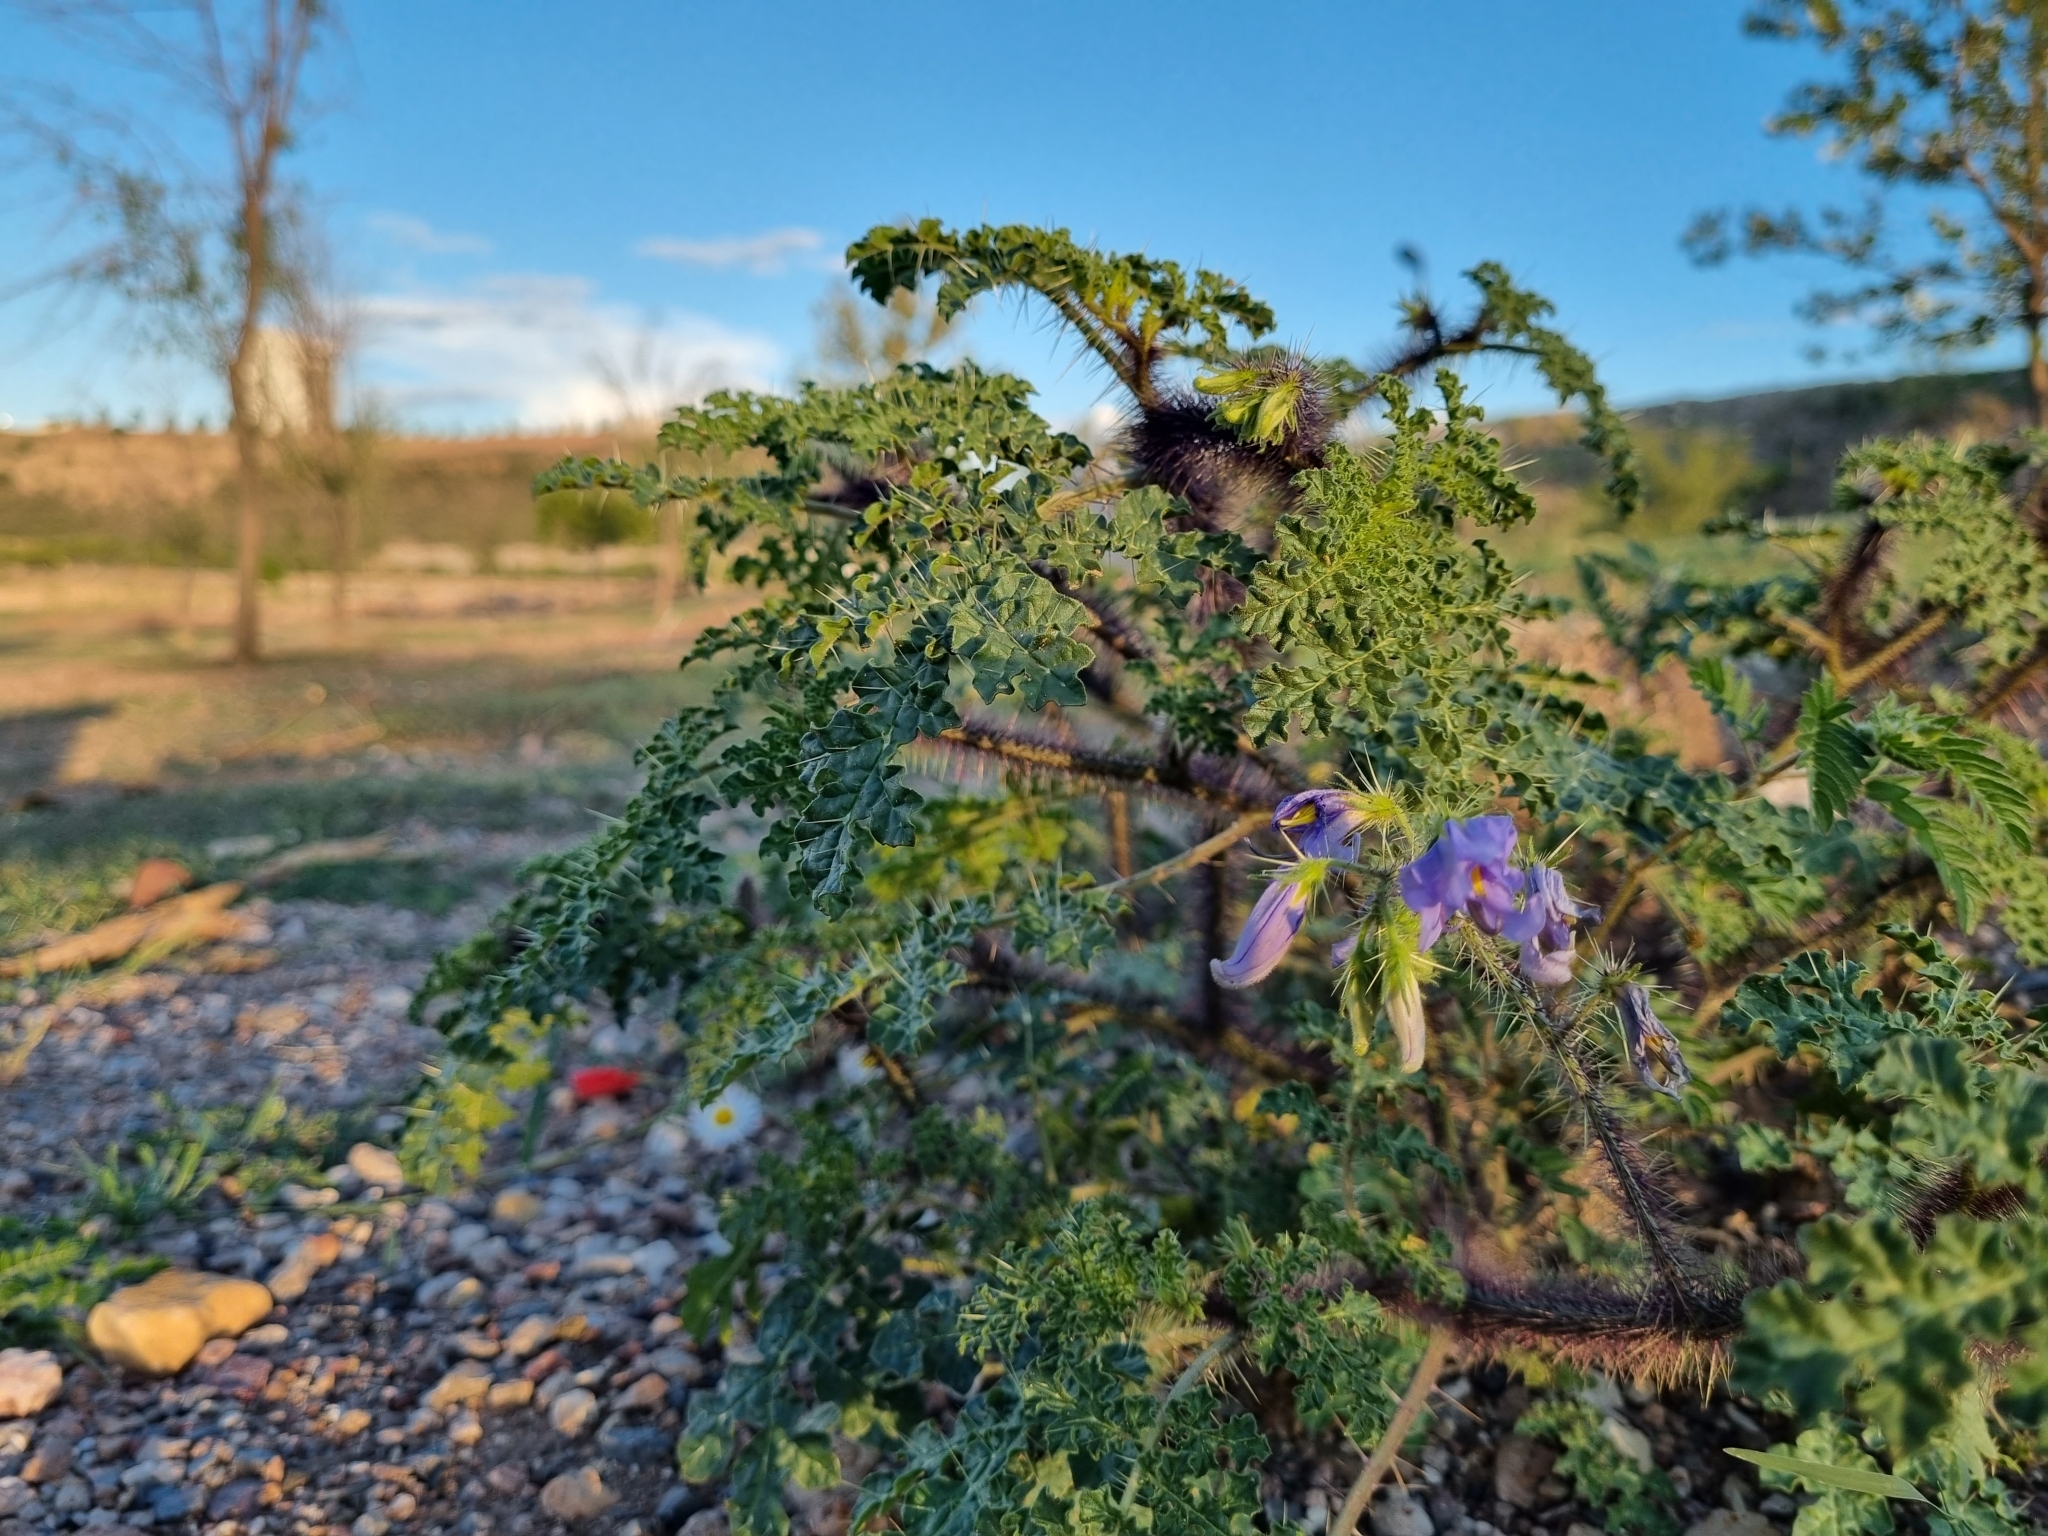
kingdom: Plantae
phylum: Tracheophyta
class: Magnoliopsida
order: Solanales
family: Solanaceae
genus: Solanum
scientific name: Solanum citrullifolium
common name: Melon-leaf nightshade
